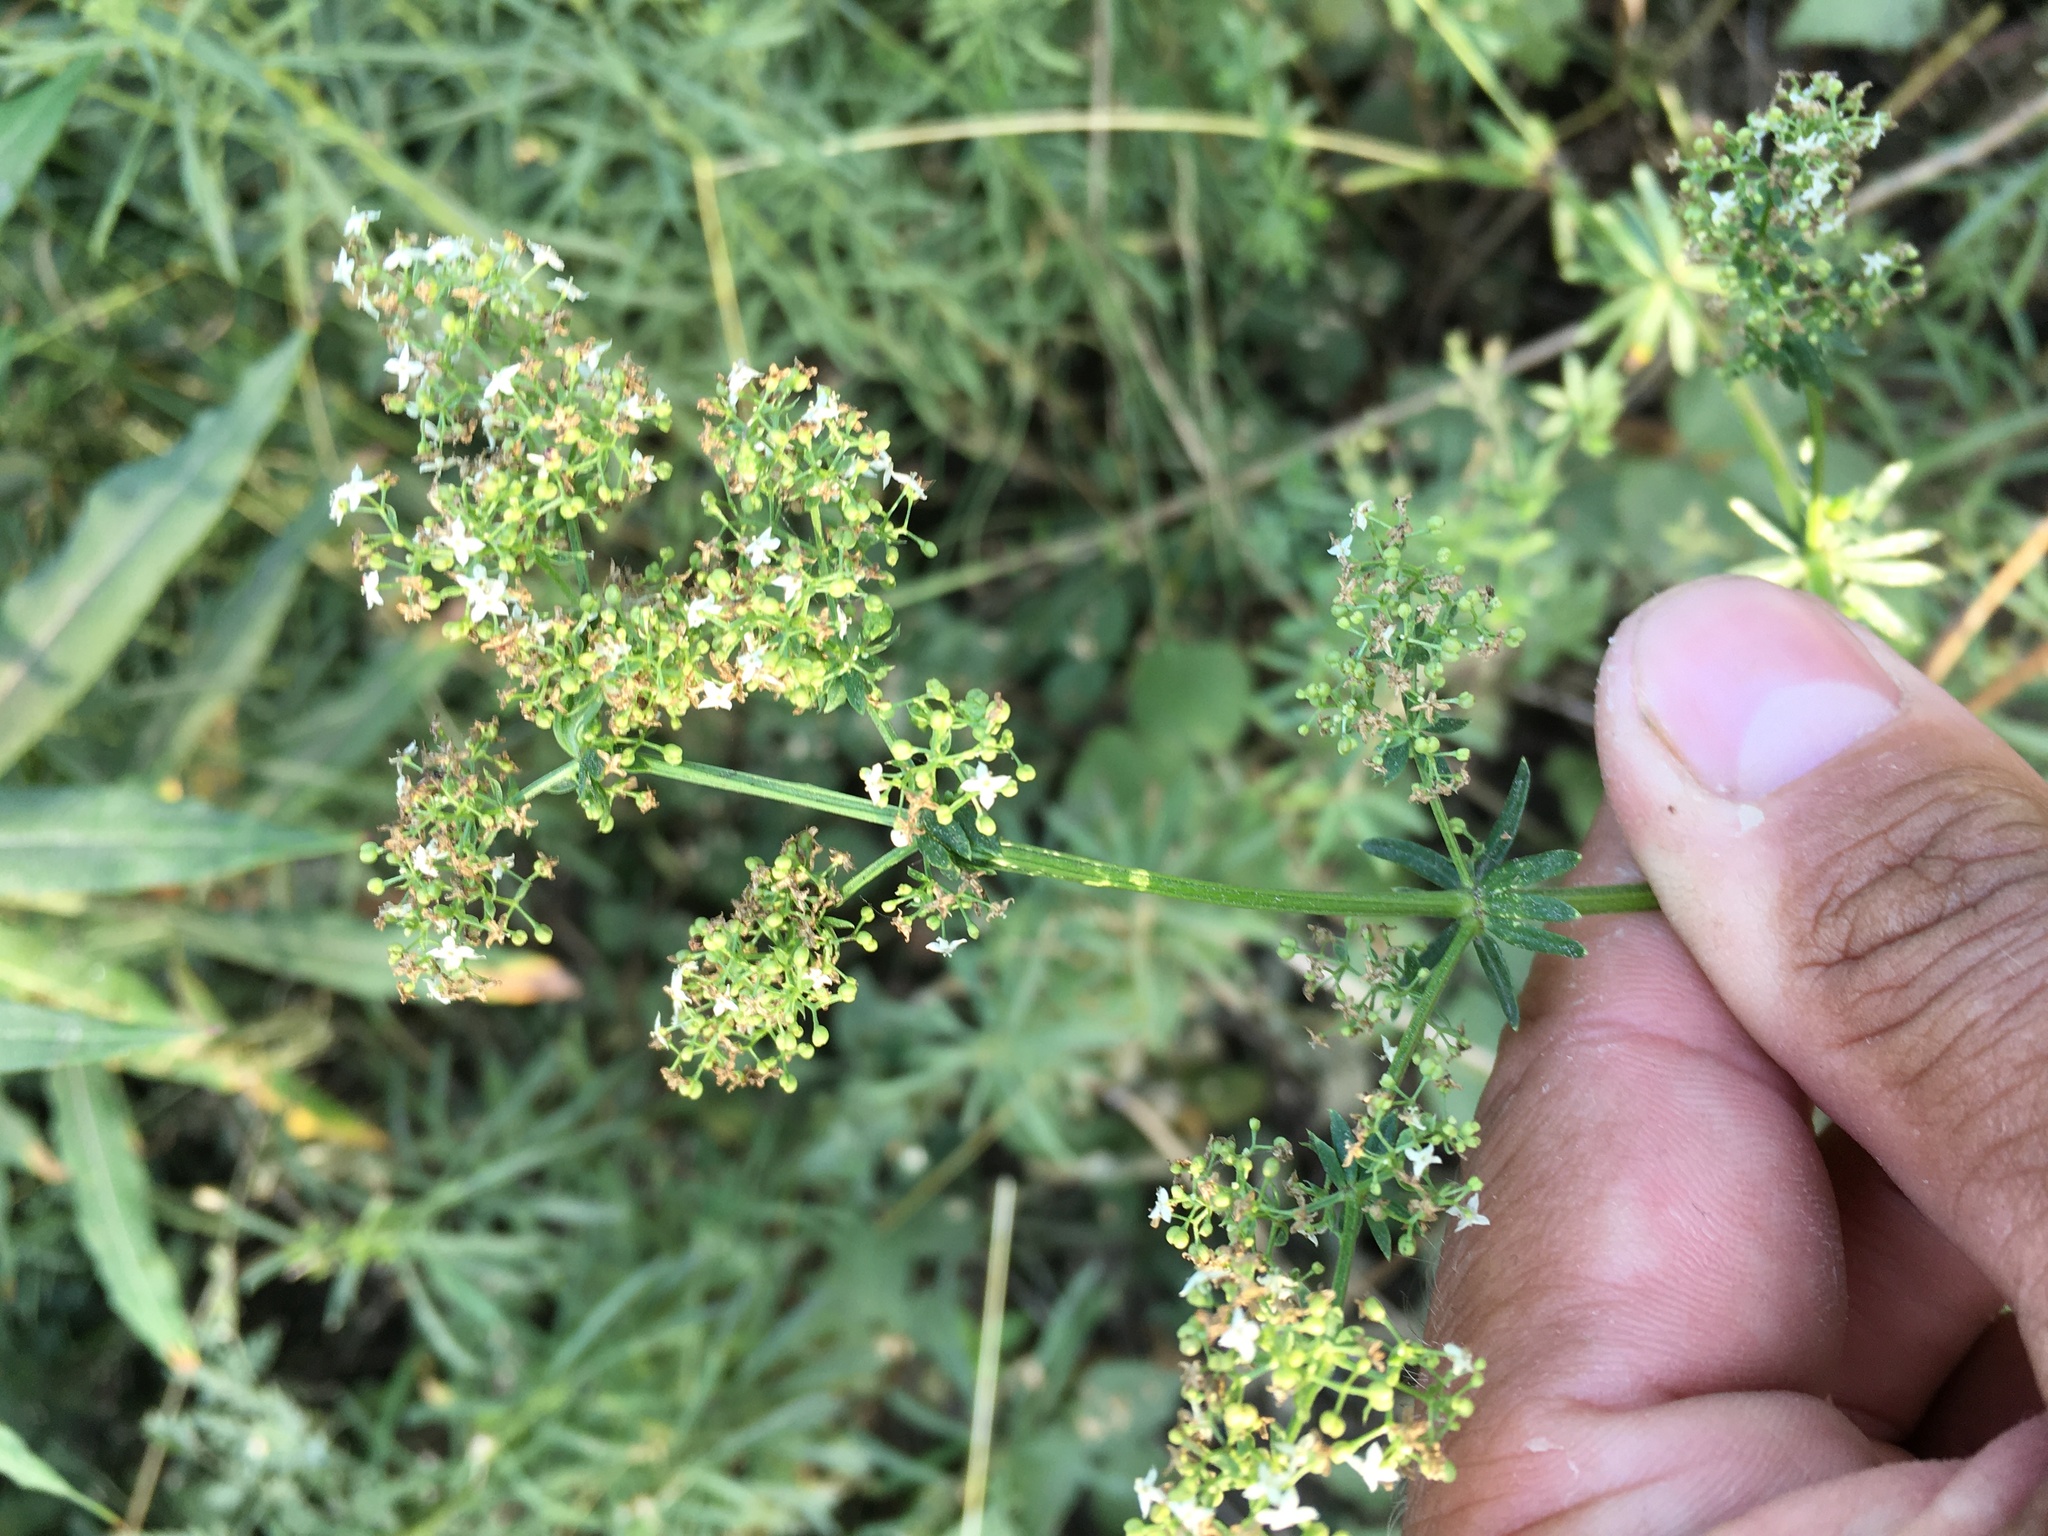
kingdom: Plantae
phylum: Tracheophyta
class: Magnoliopsida
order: Gentianales
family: Rubiaceae
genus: Galium
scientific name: Galium mollugo
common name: Hedge bedstraw
